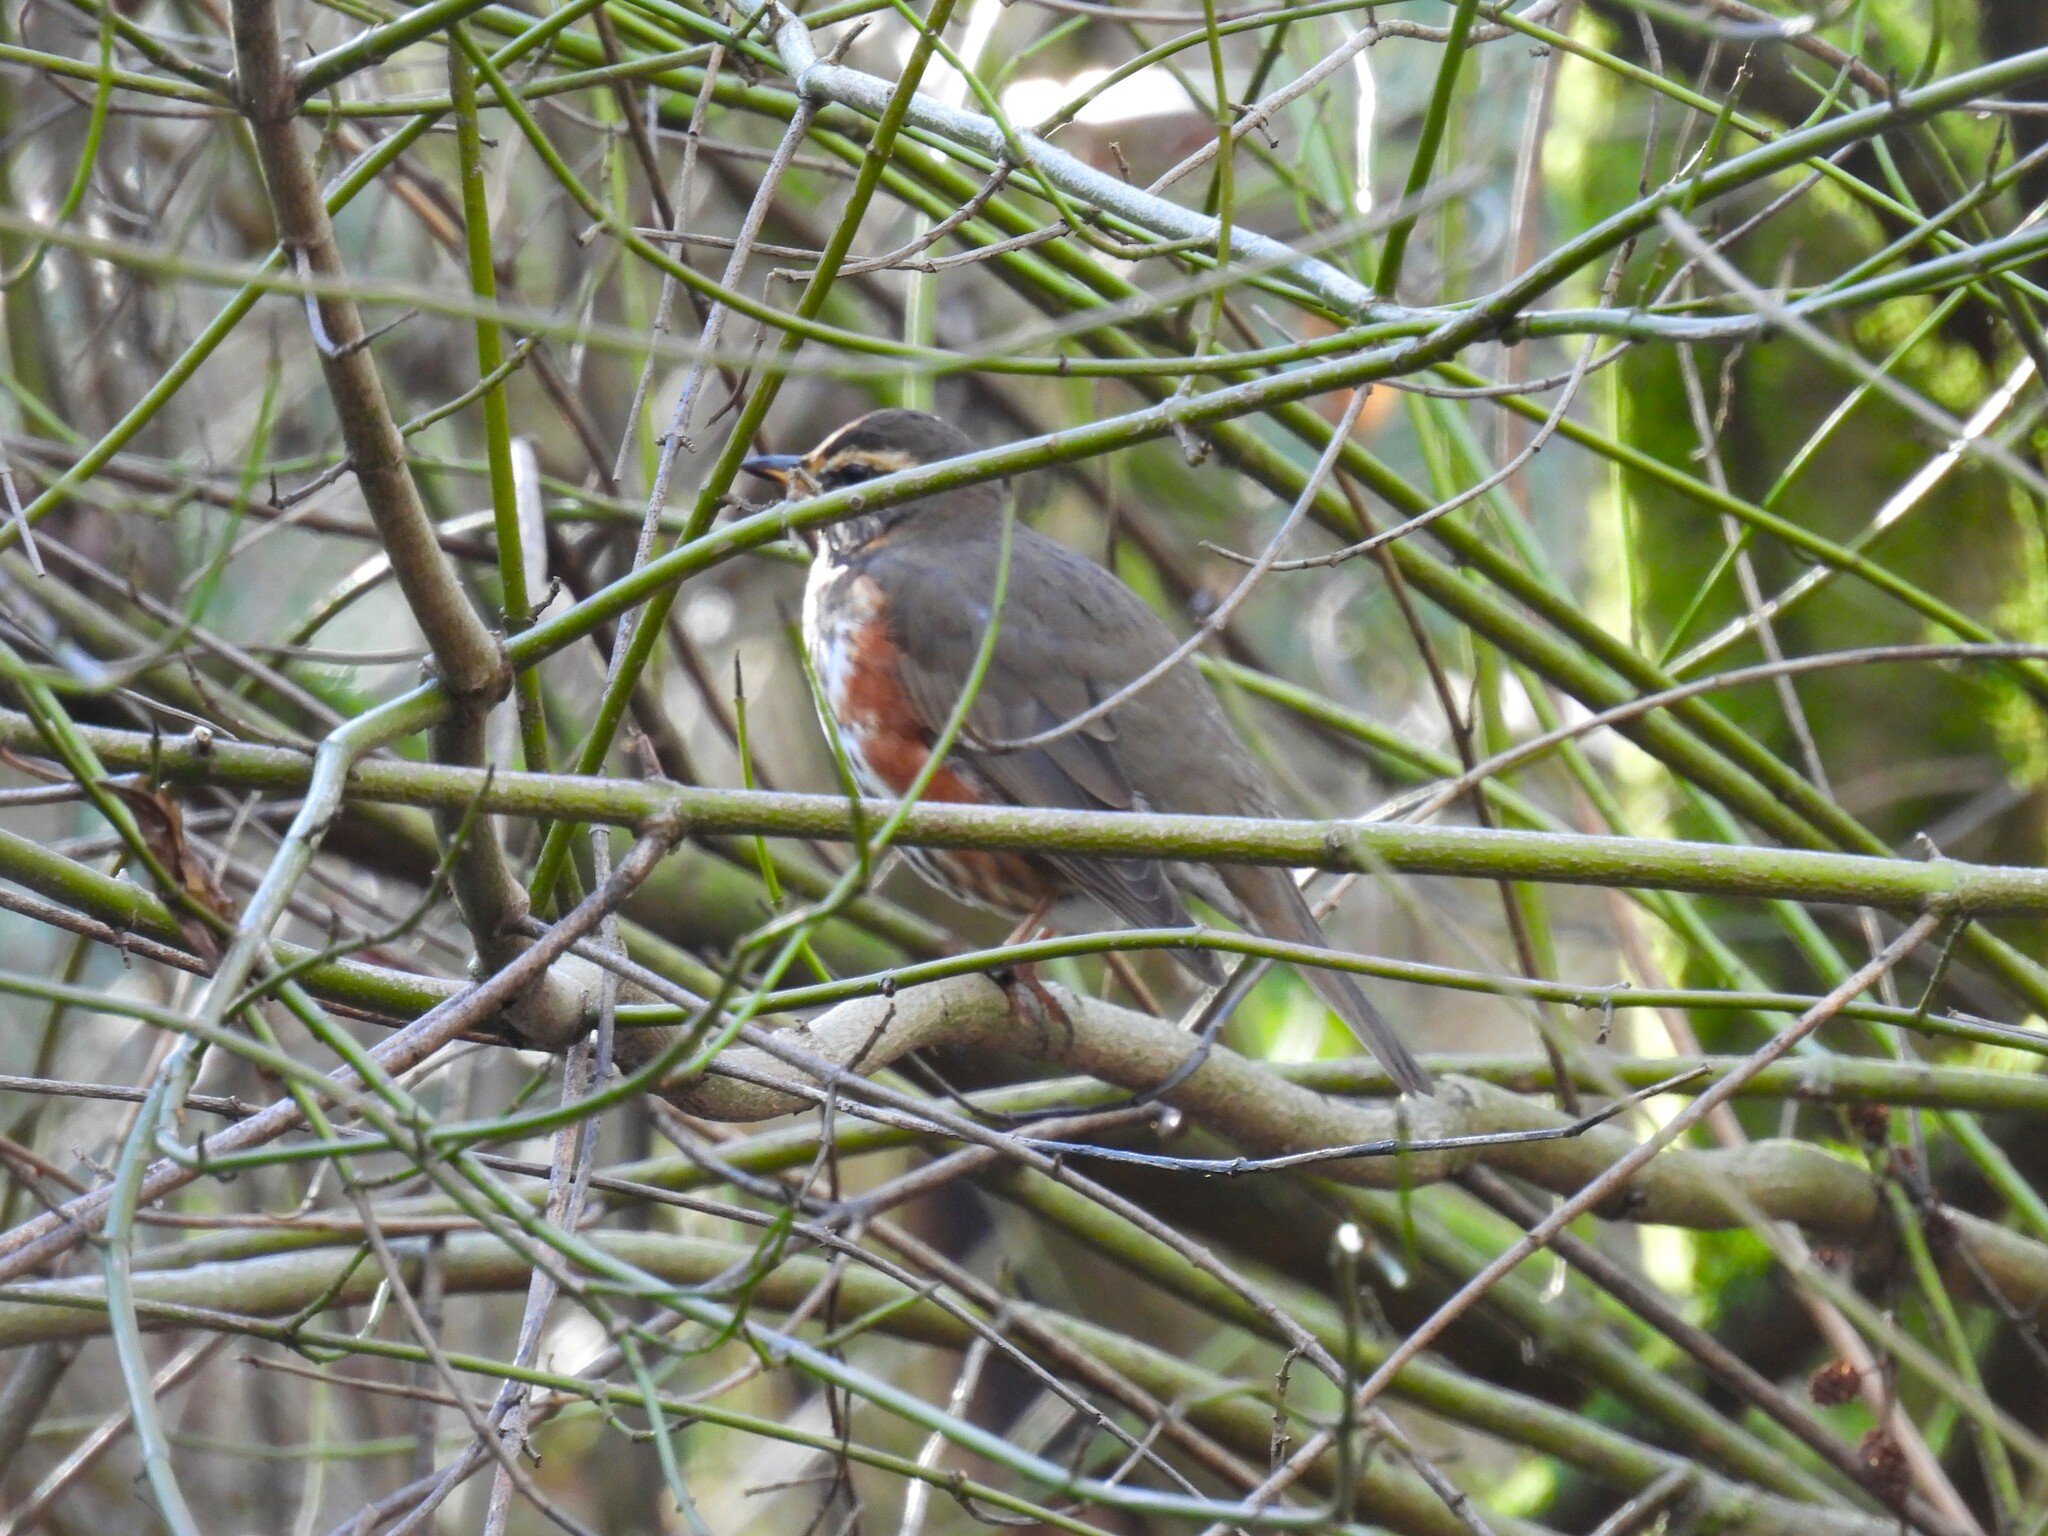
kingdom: Animalia
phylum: Chordata
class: Aves
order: Passeriformes
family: Turdidae
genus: Turdus
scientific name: Turdus iliacus
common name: Redwing
